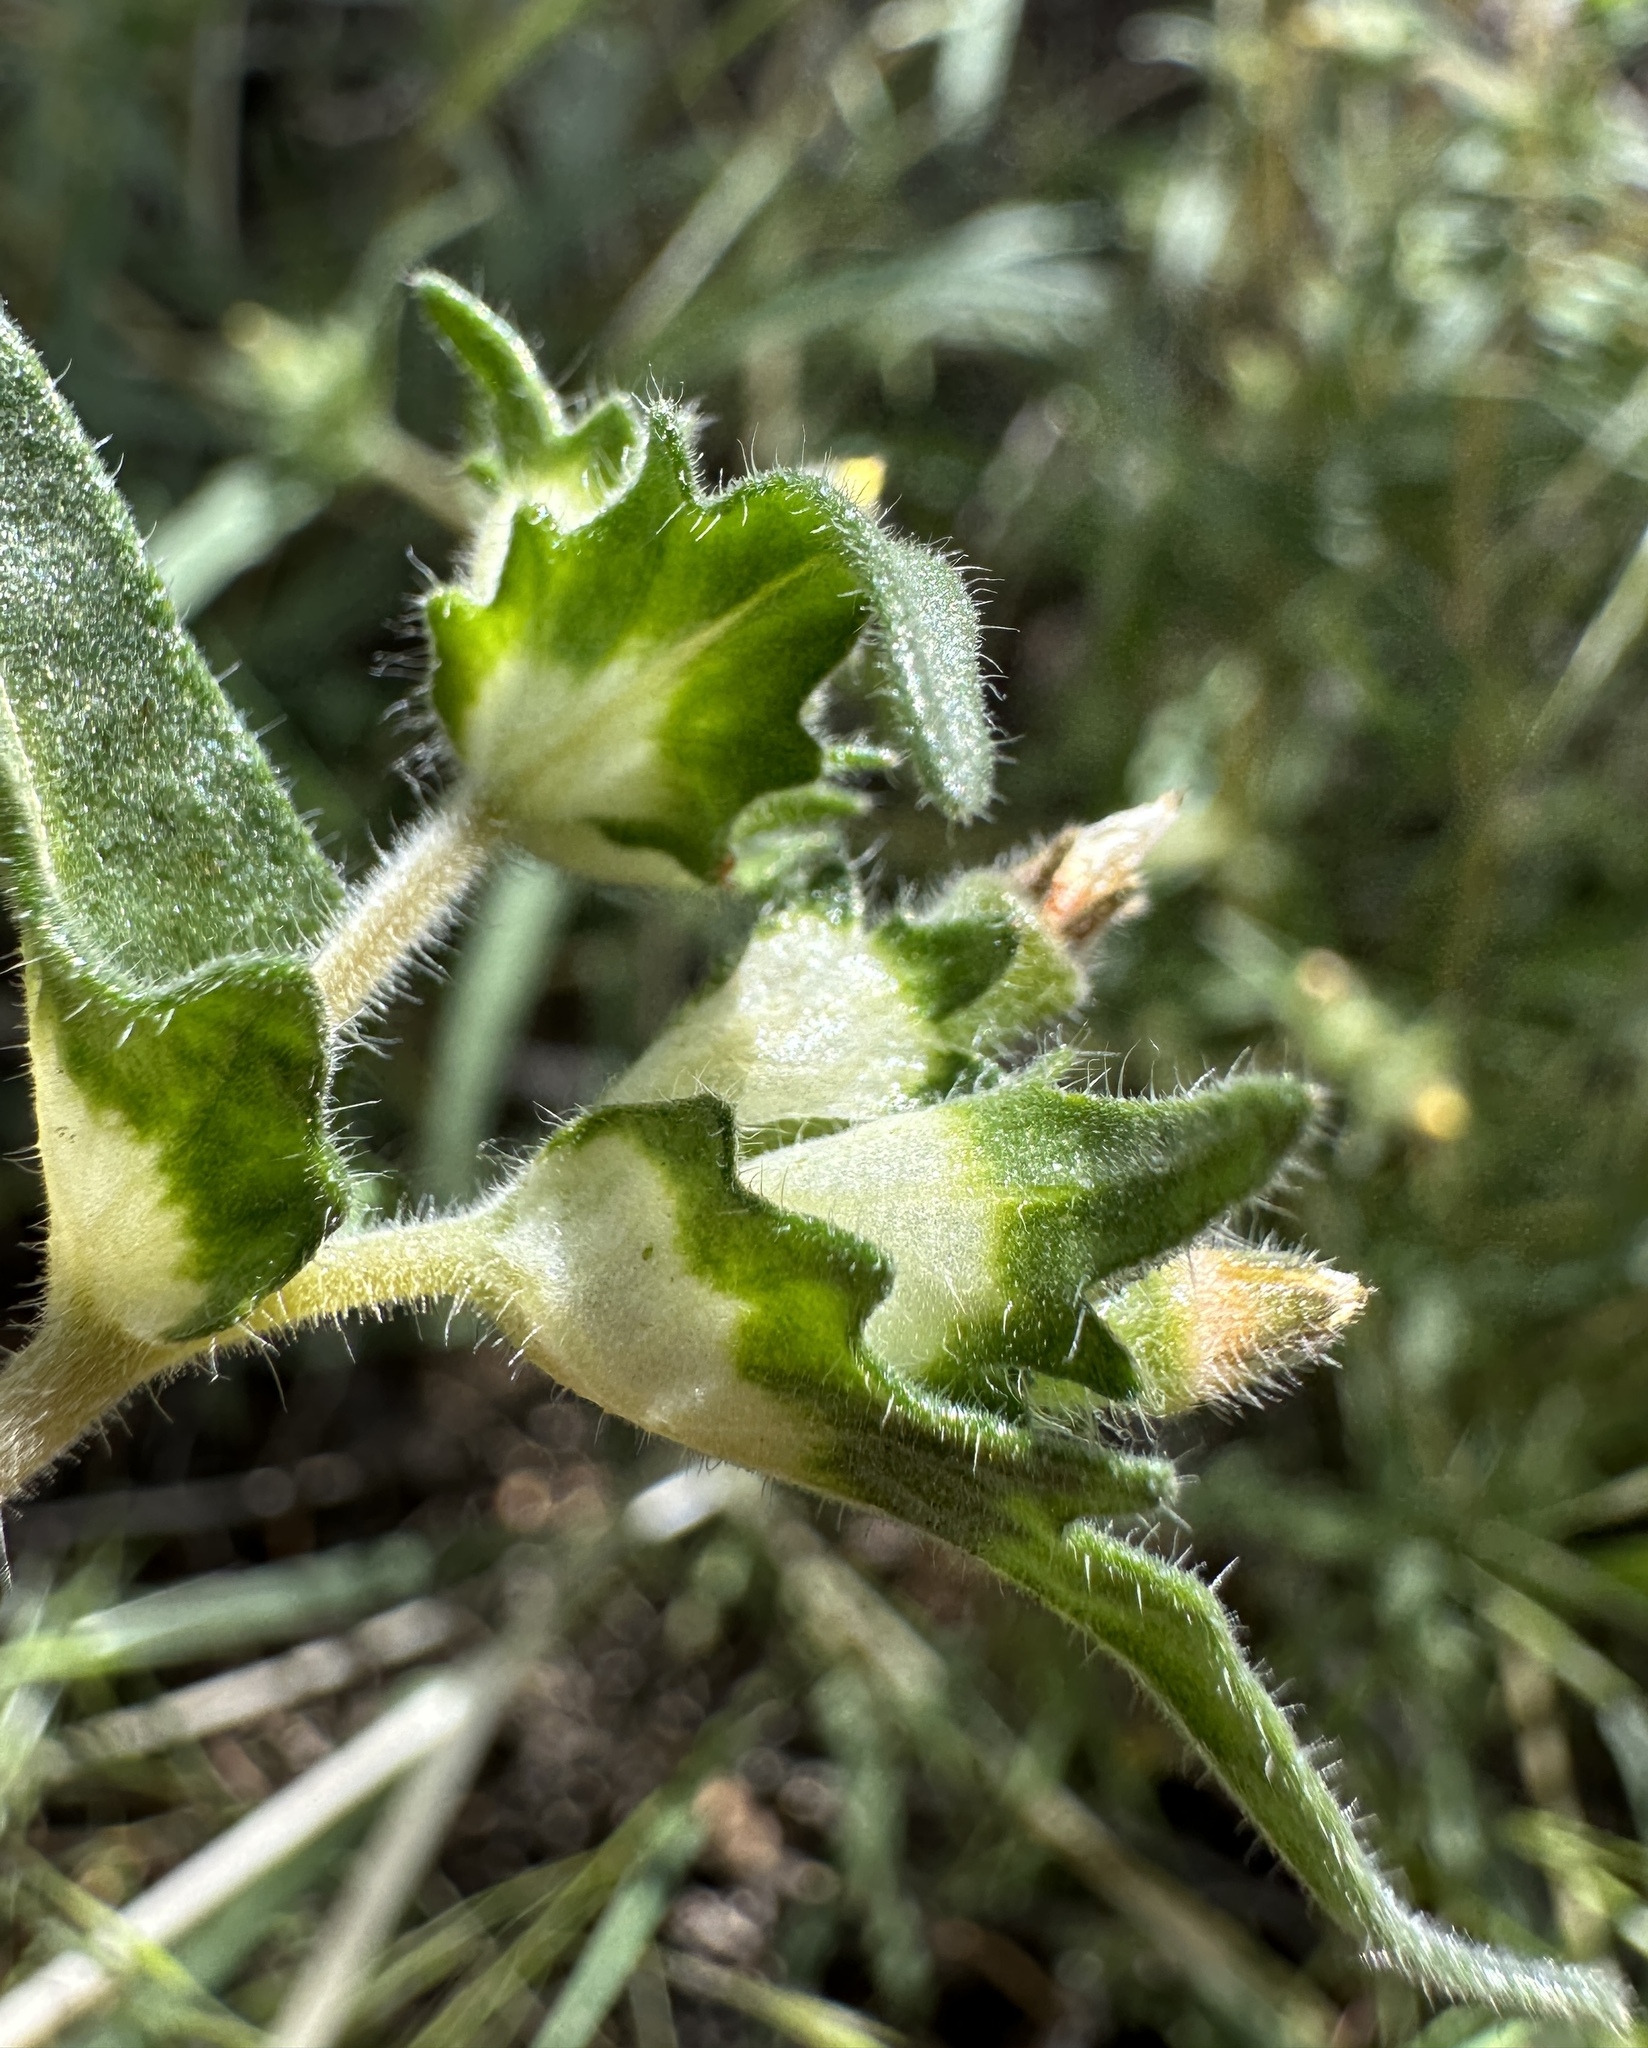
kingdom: Plantae
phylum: Tracheophyta
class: Magnoliopsida
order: Cornales
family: Loasaceae
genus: Mentzelia
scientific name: Mentzelia montana
